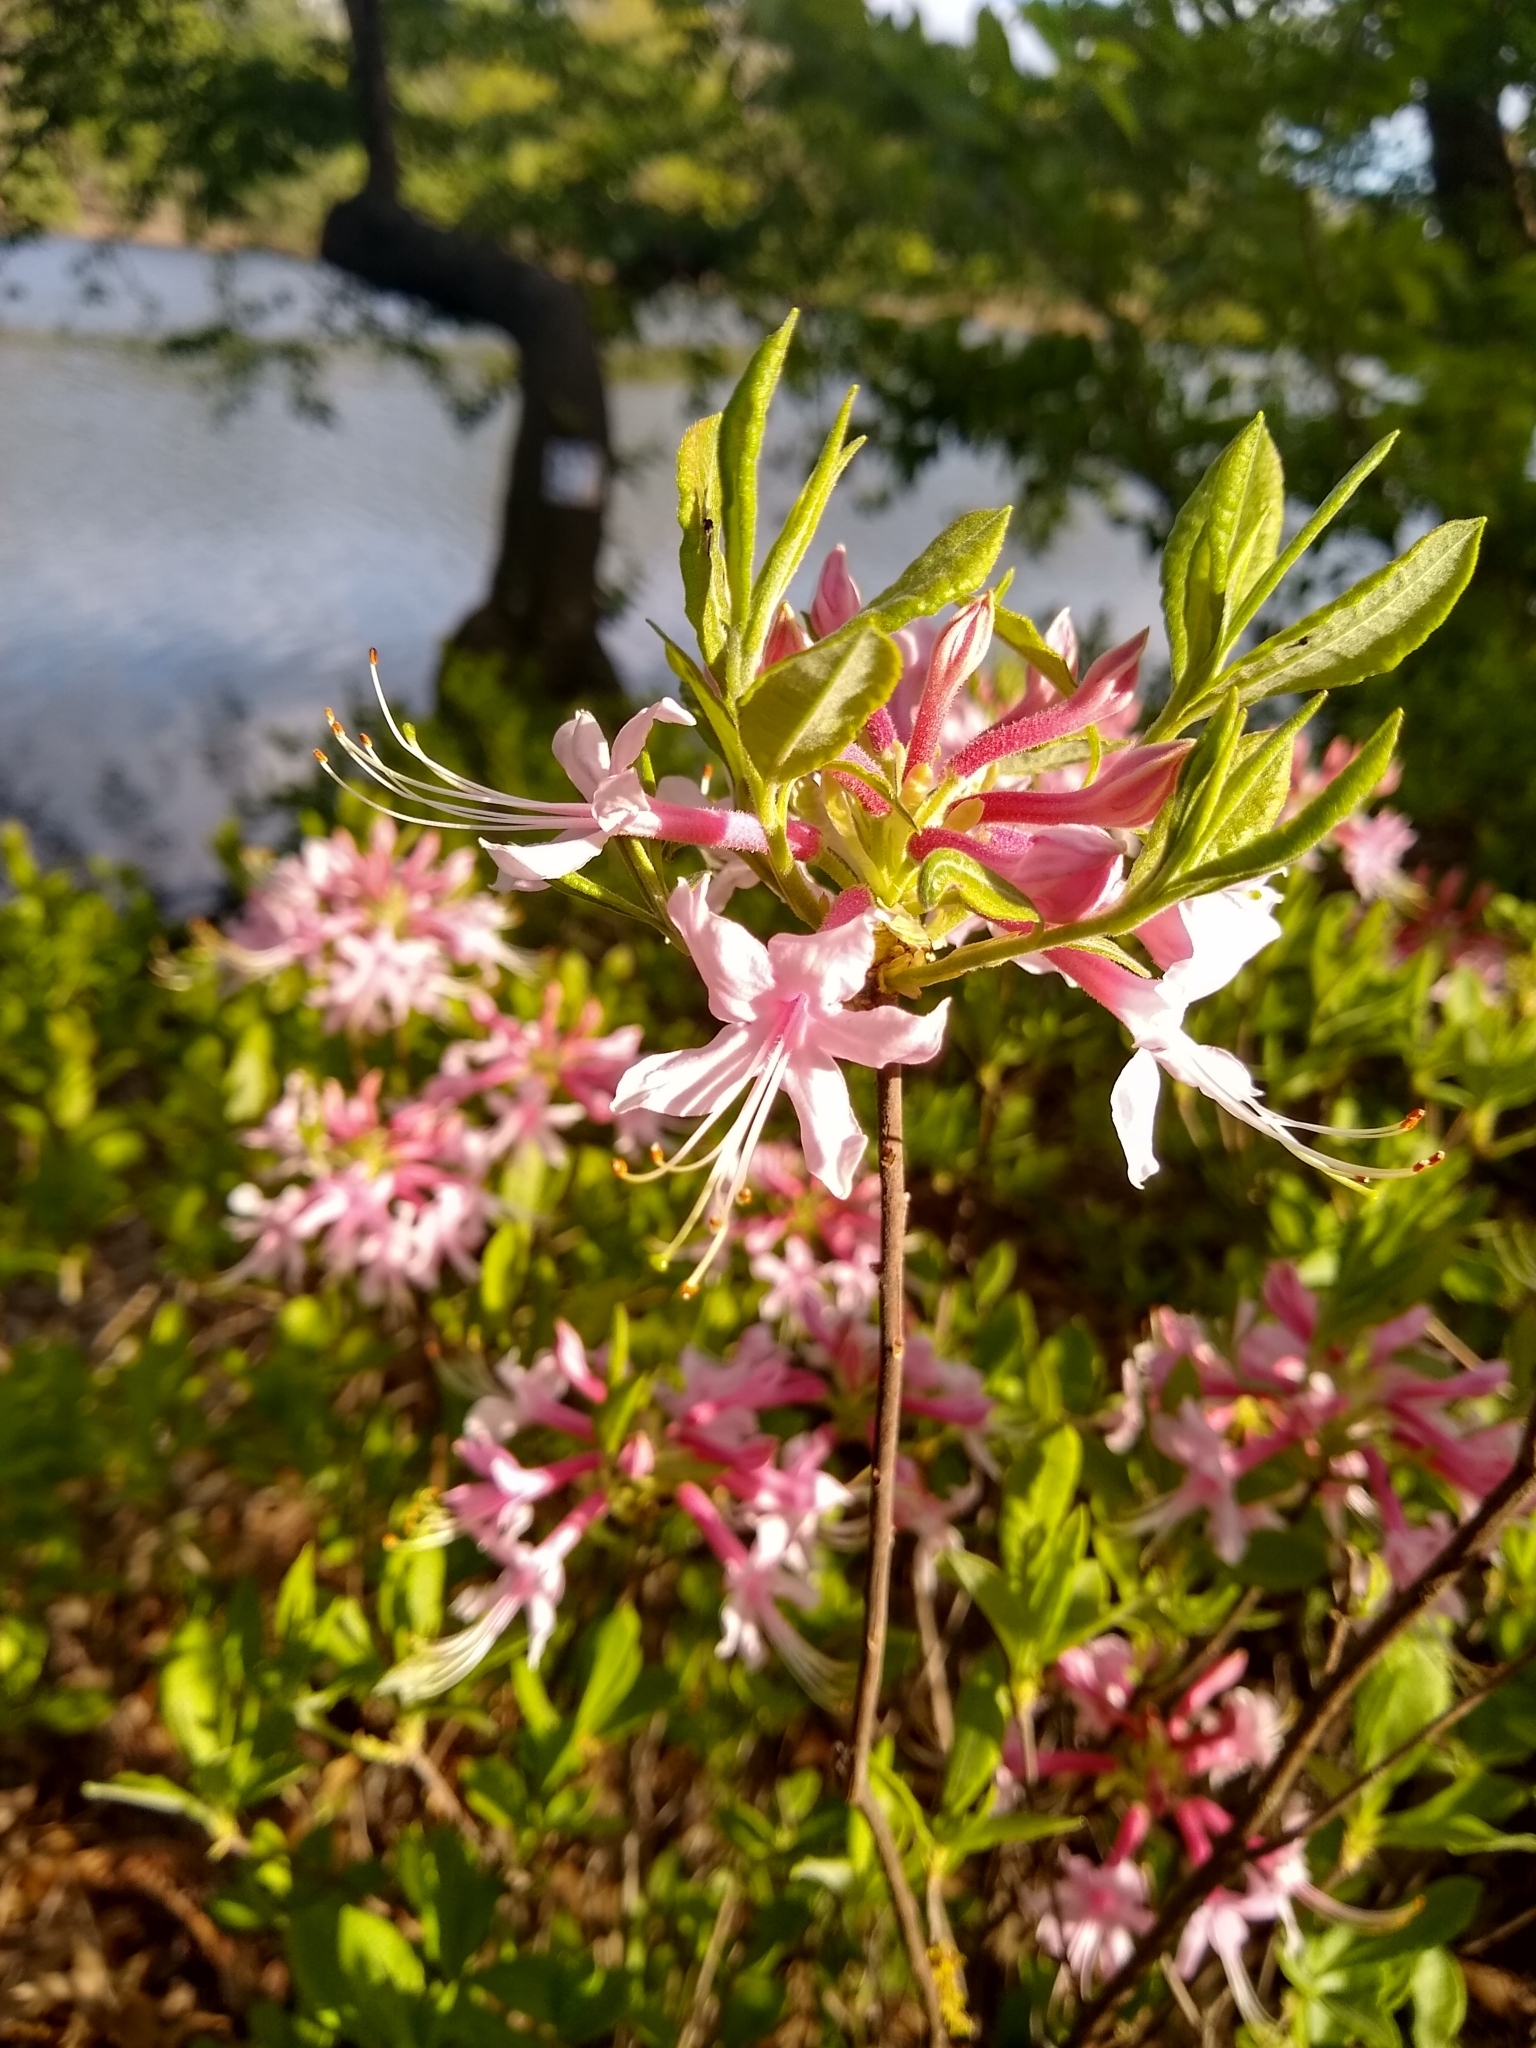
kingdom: Plantae
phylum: Tracheophyta
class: Magnoliopsida
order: Ericales
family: Ericaceae
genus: Rhododendron
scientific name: Rhododendron periclymenoides
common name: Election-pink
